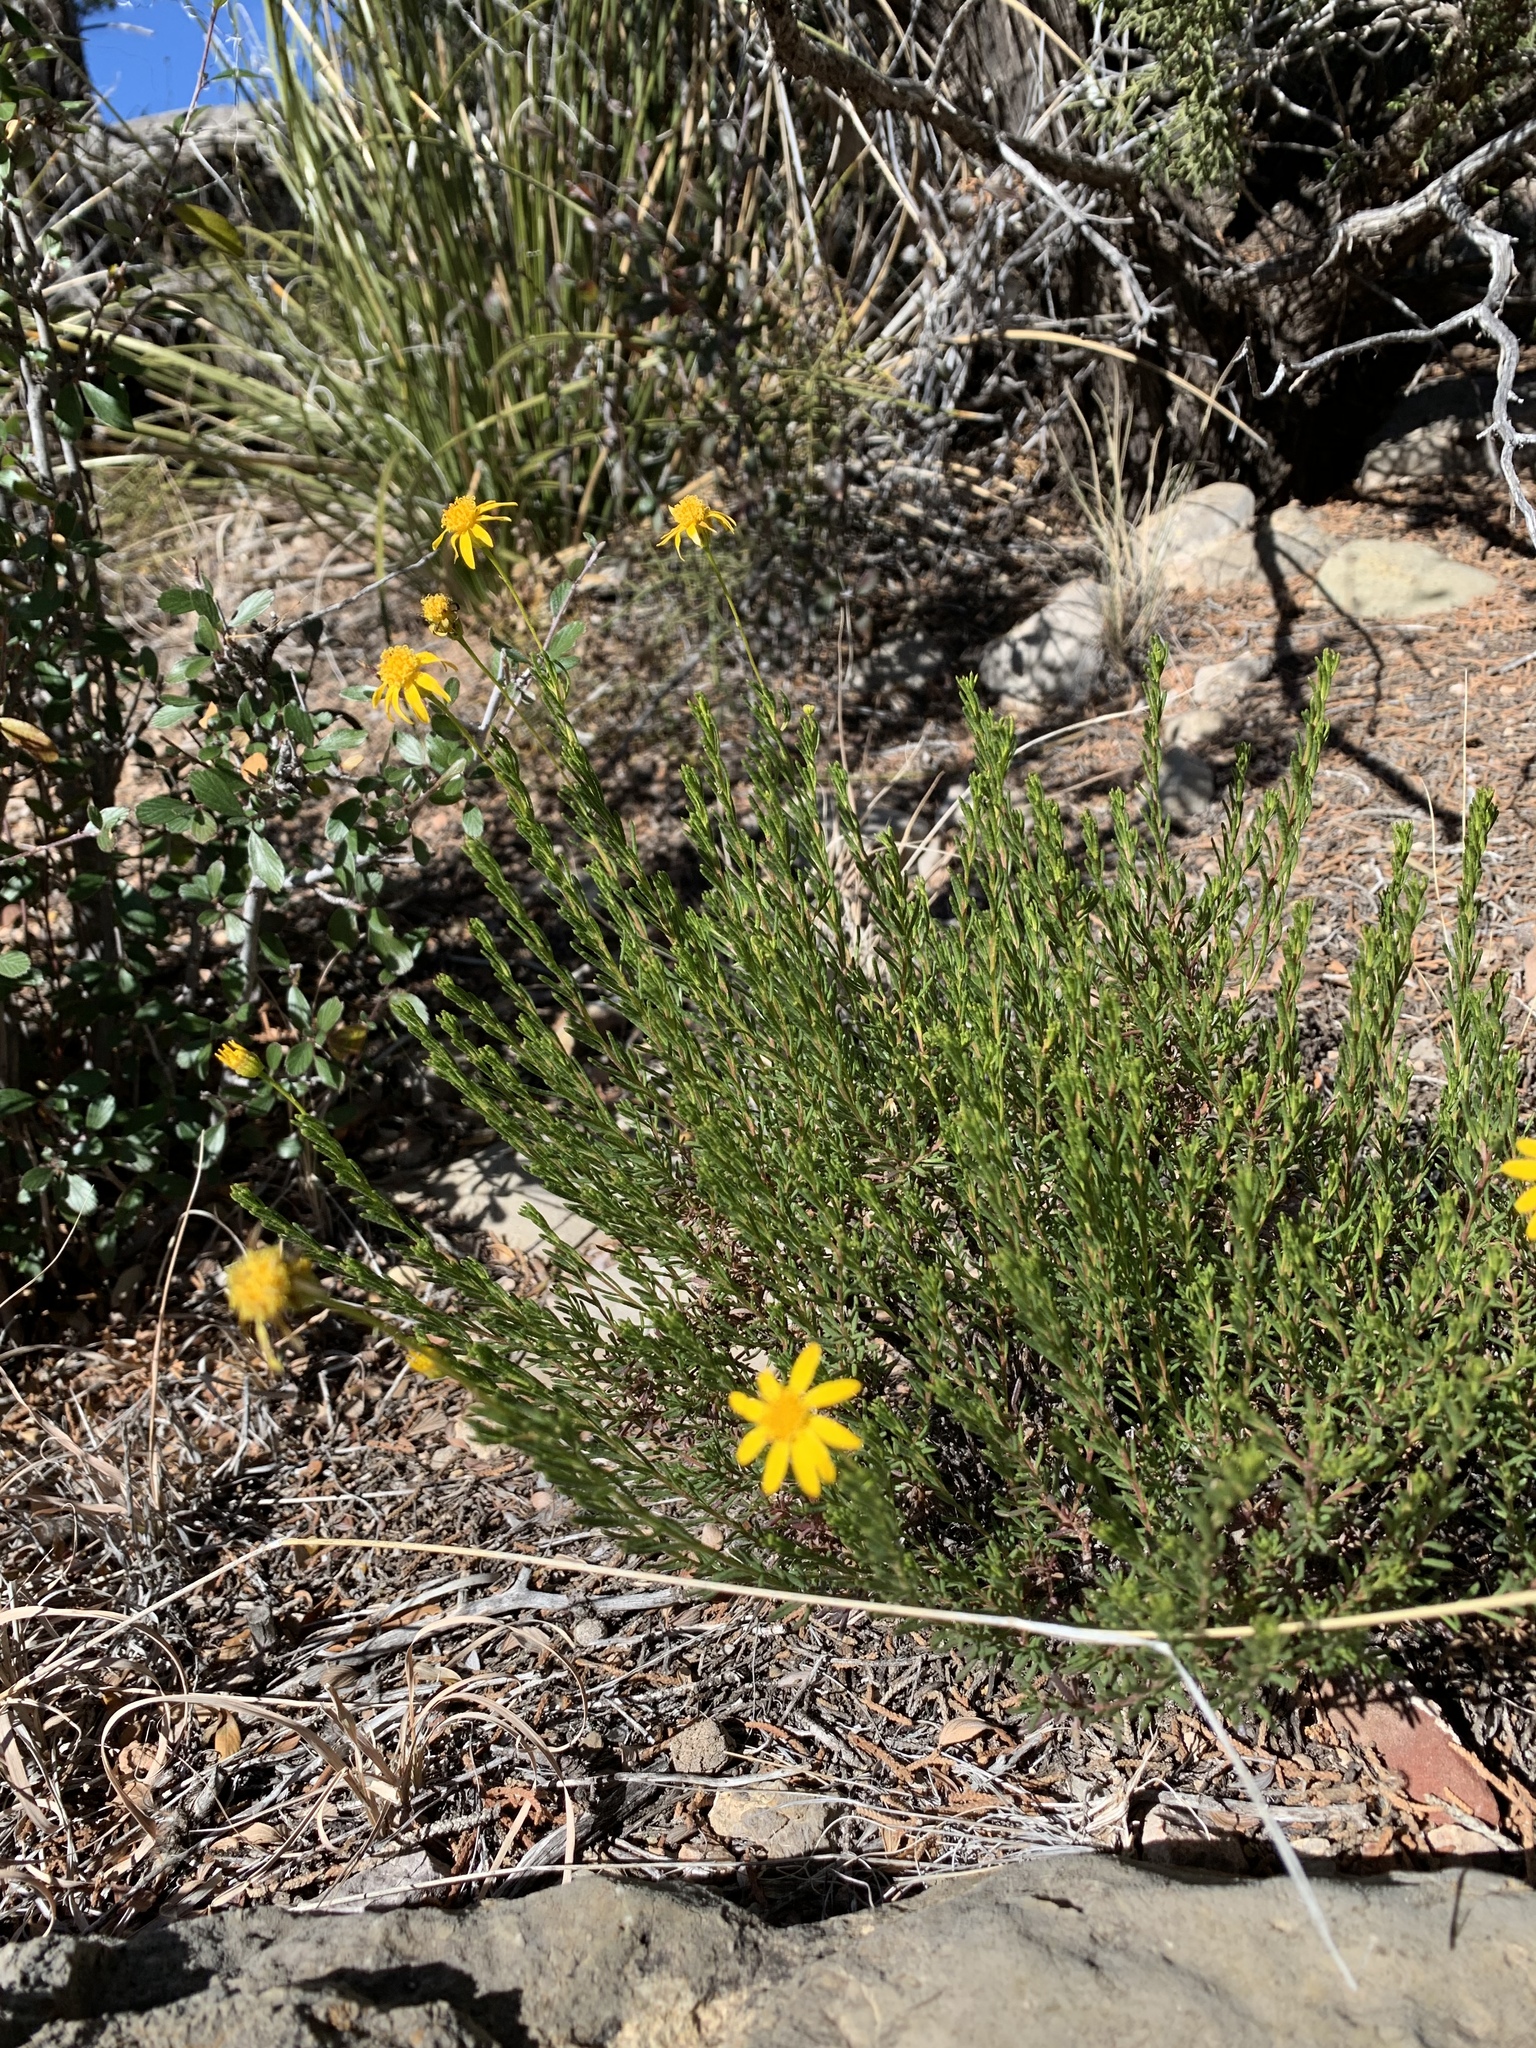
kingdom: Plantae
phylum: Tracheophyta
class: Magnoliopsida
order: Asterales
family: Asteraceae
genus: Chrysactinia
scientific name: Chrysactinia mexicana
